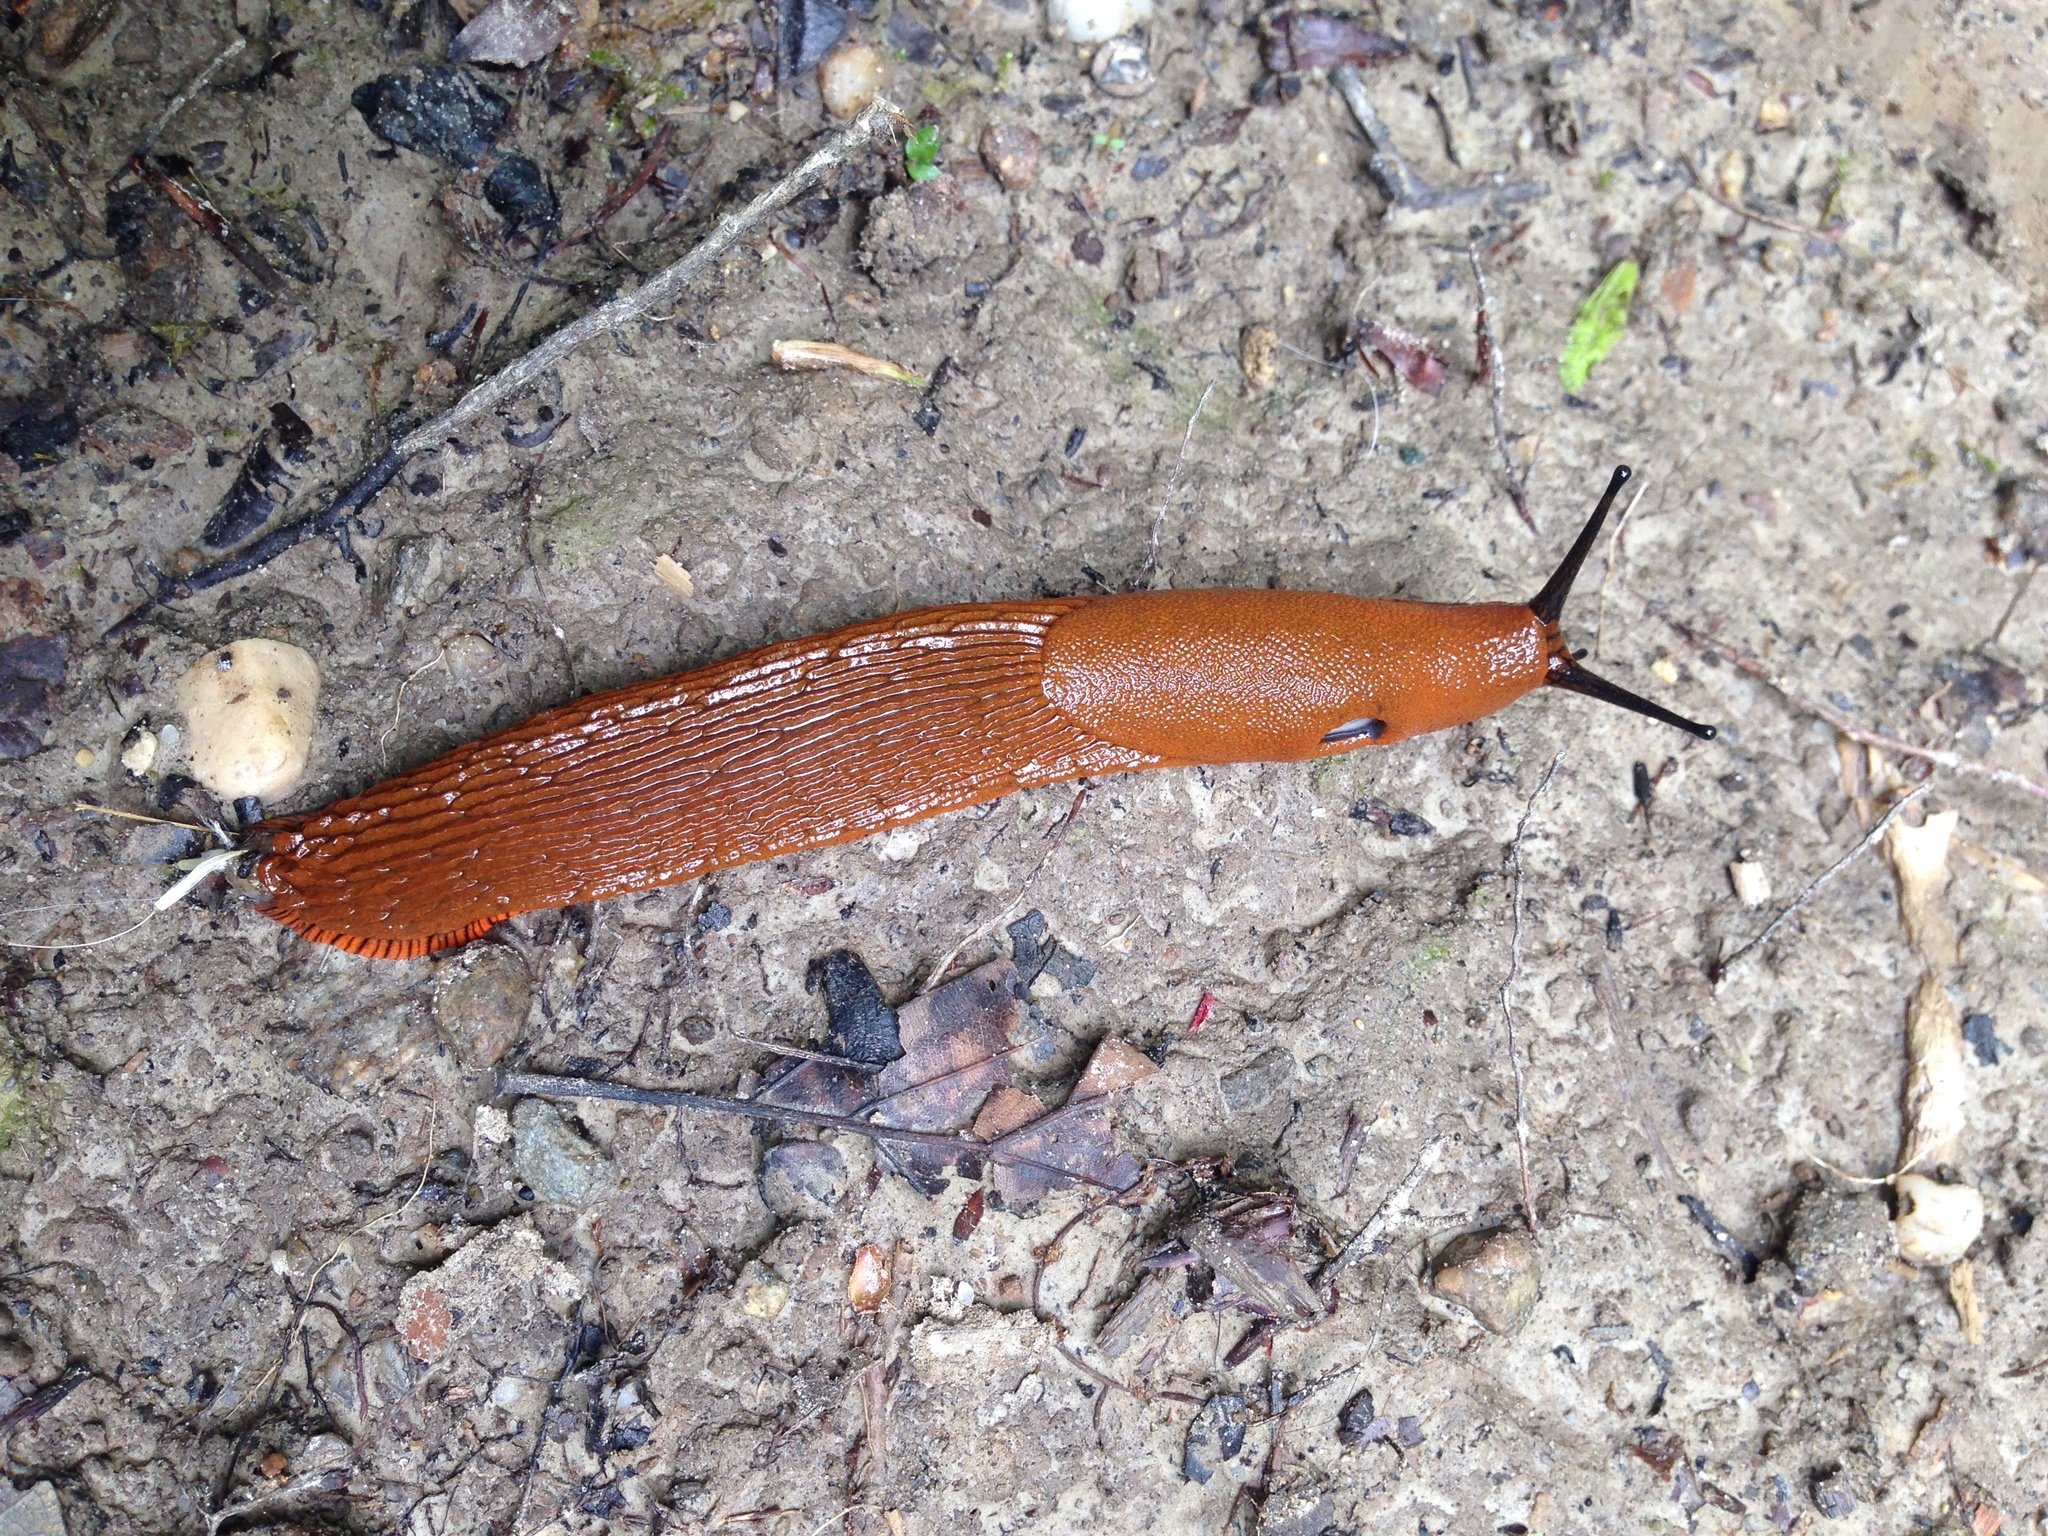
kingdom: Animalia
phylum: Mollusca
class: Gastropoda
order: Stylommatophora
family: Arionidae
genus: Arion
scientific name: Arion rufus
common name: Chocolate arion
